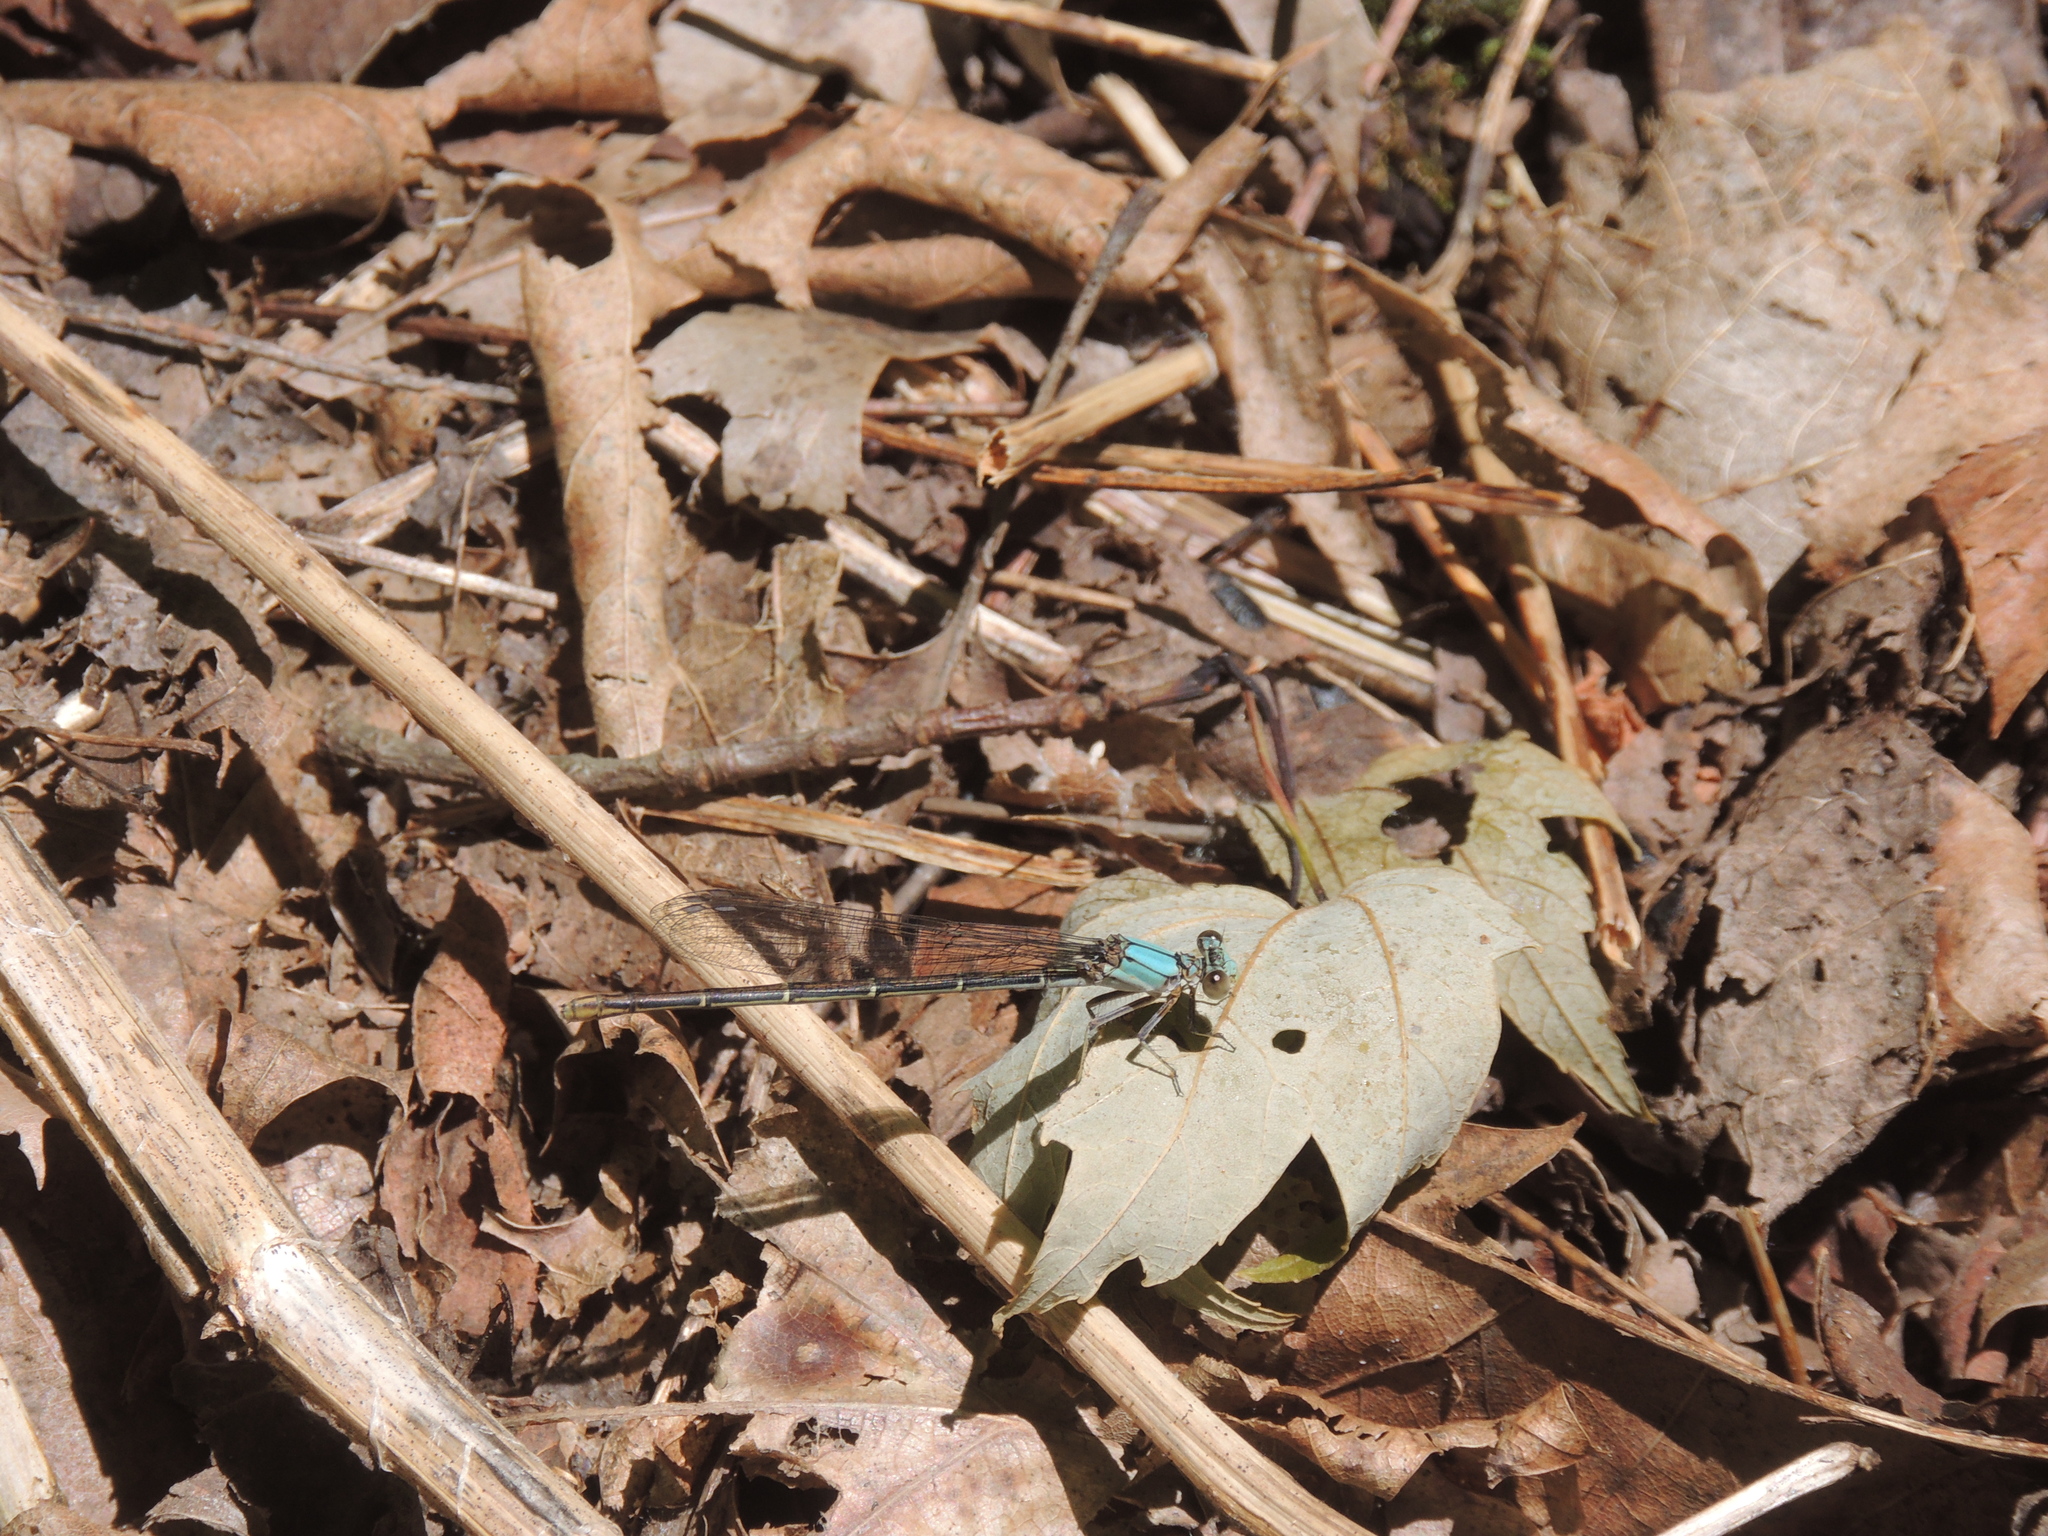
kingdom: Animalia
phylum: Arthropoda
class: Insecta
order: Odonata
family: Coenagrionidae
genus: Argia
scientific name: Argia moesta
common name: Powdered dancer
